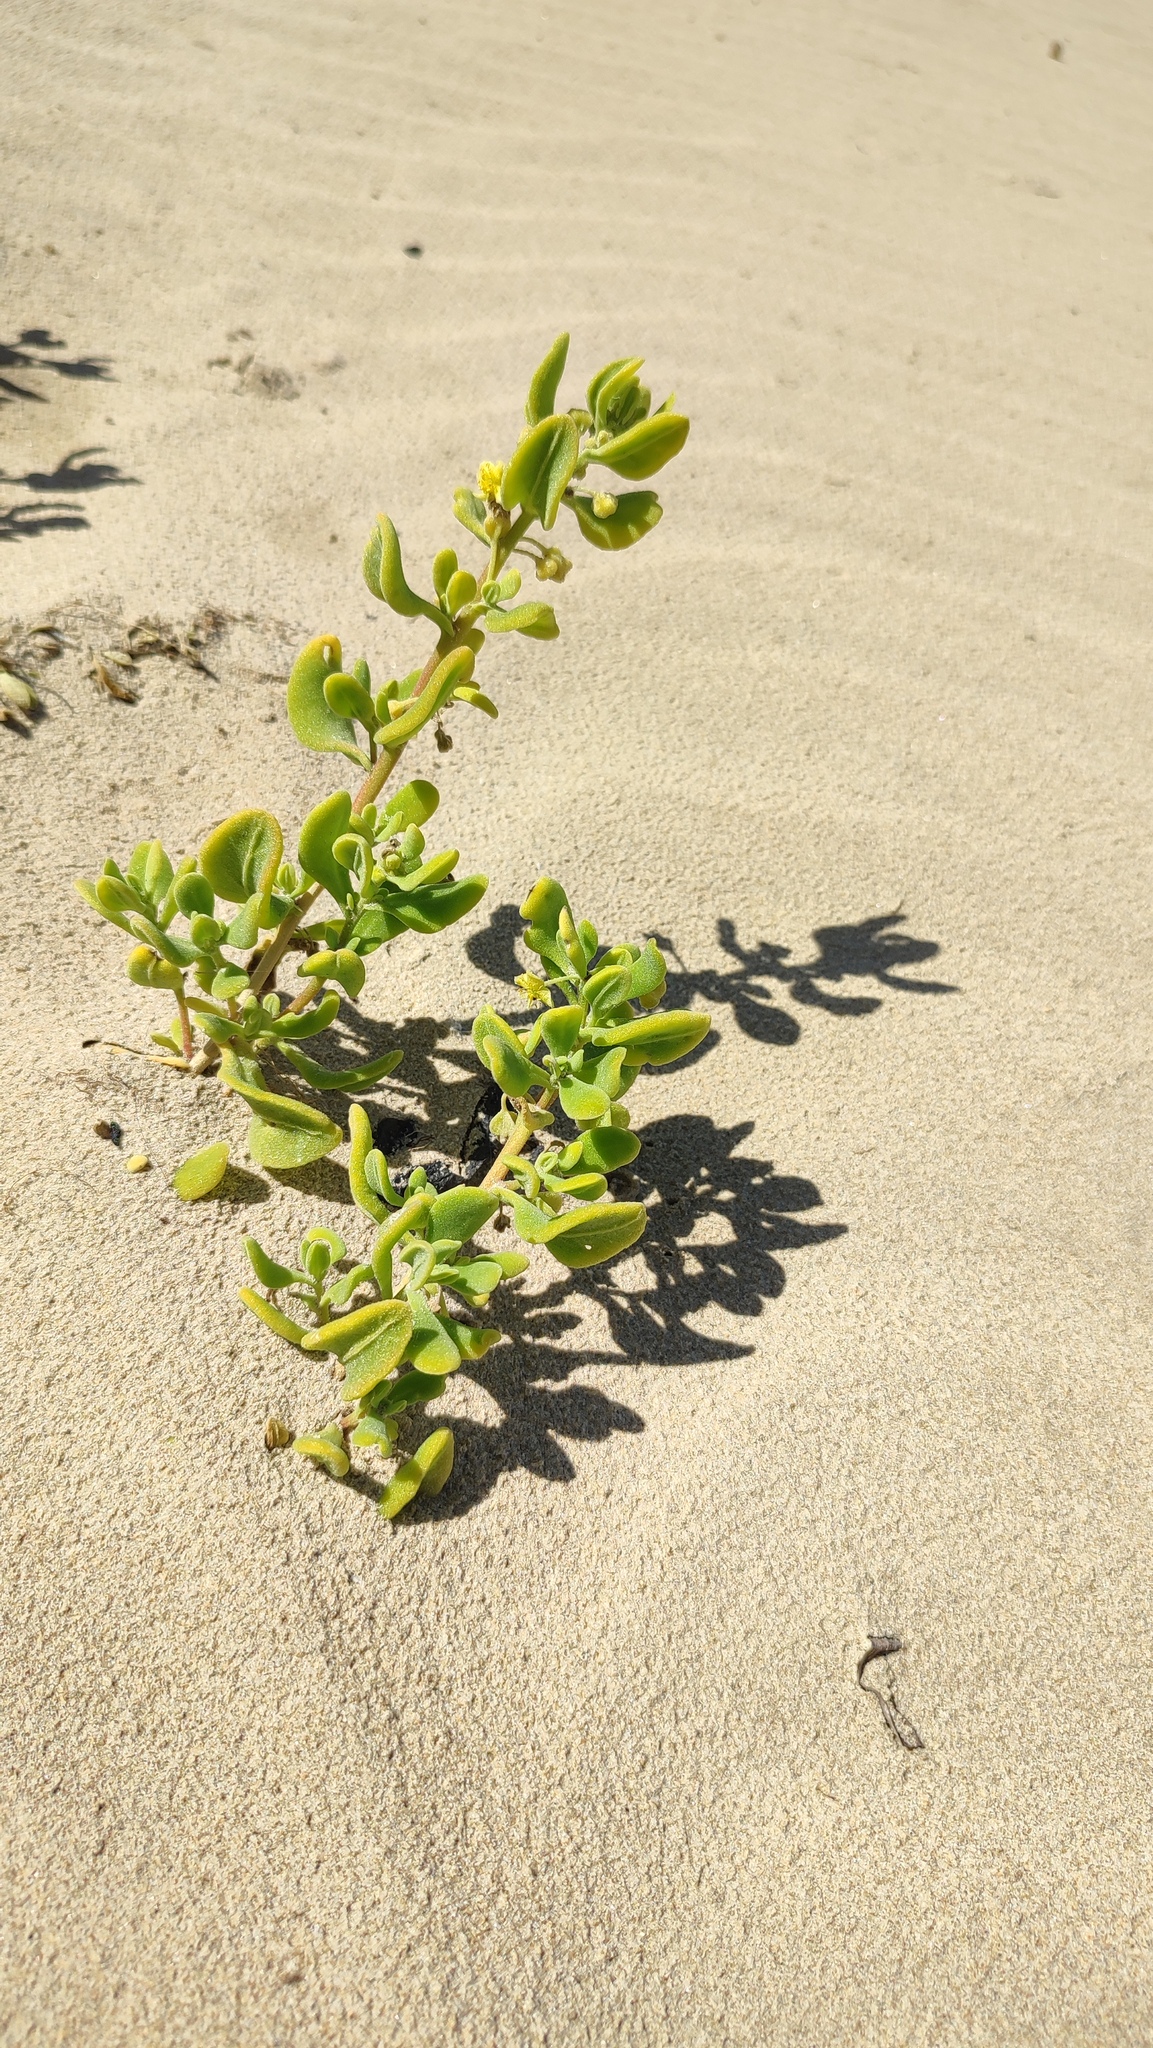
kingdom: Plantae
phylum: Tracheophyta
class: Magnoliopsida
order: Caryophyllales
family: Aizoaceae
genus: Tetragonia
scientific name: Tetragonia decumbens
